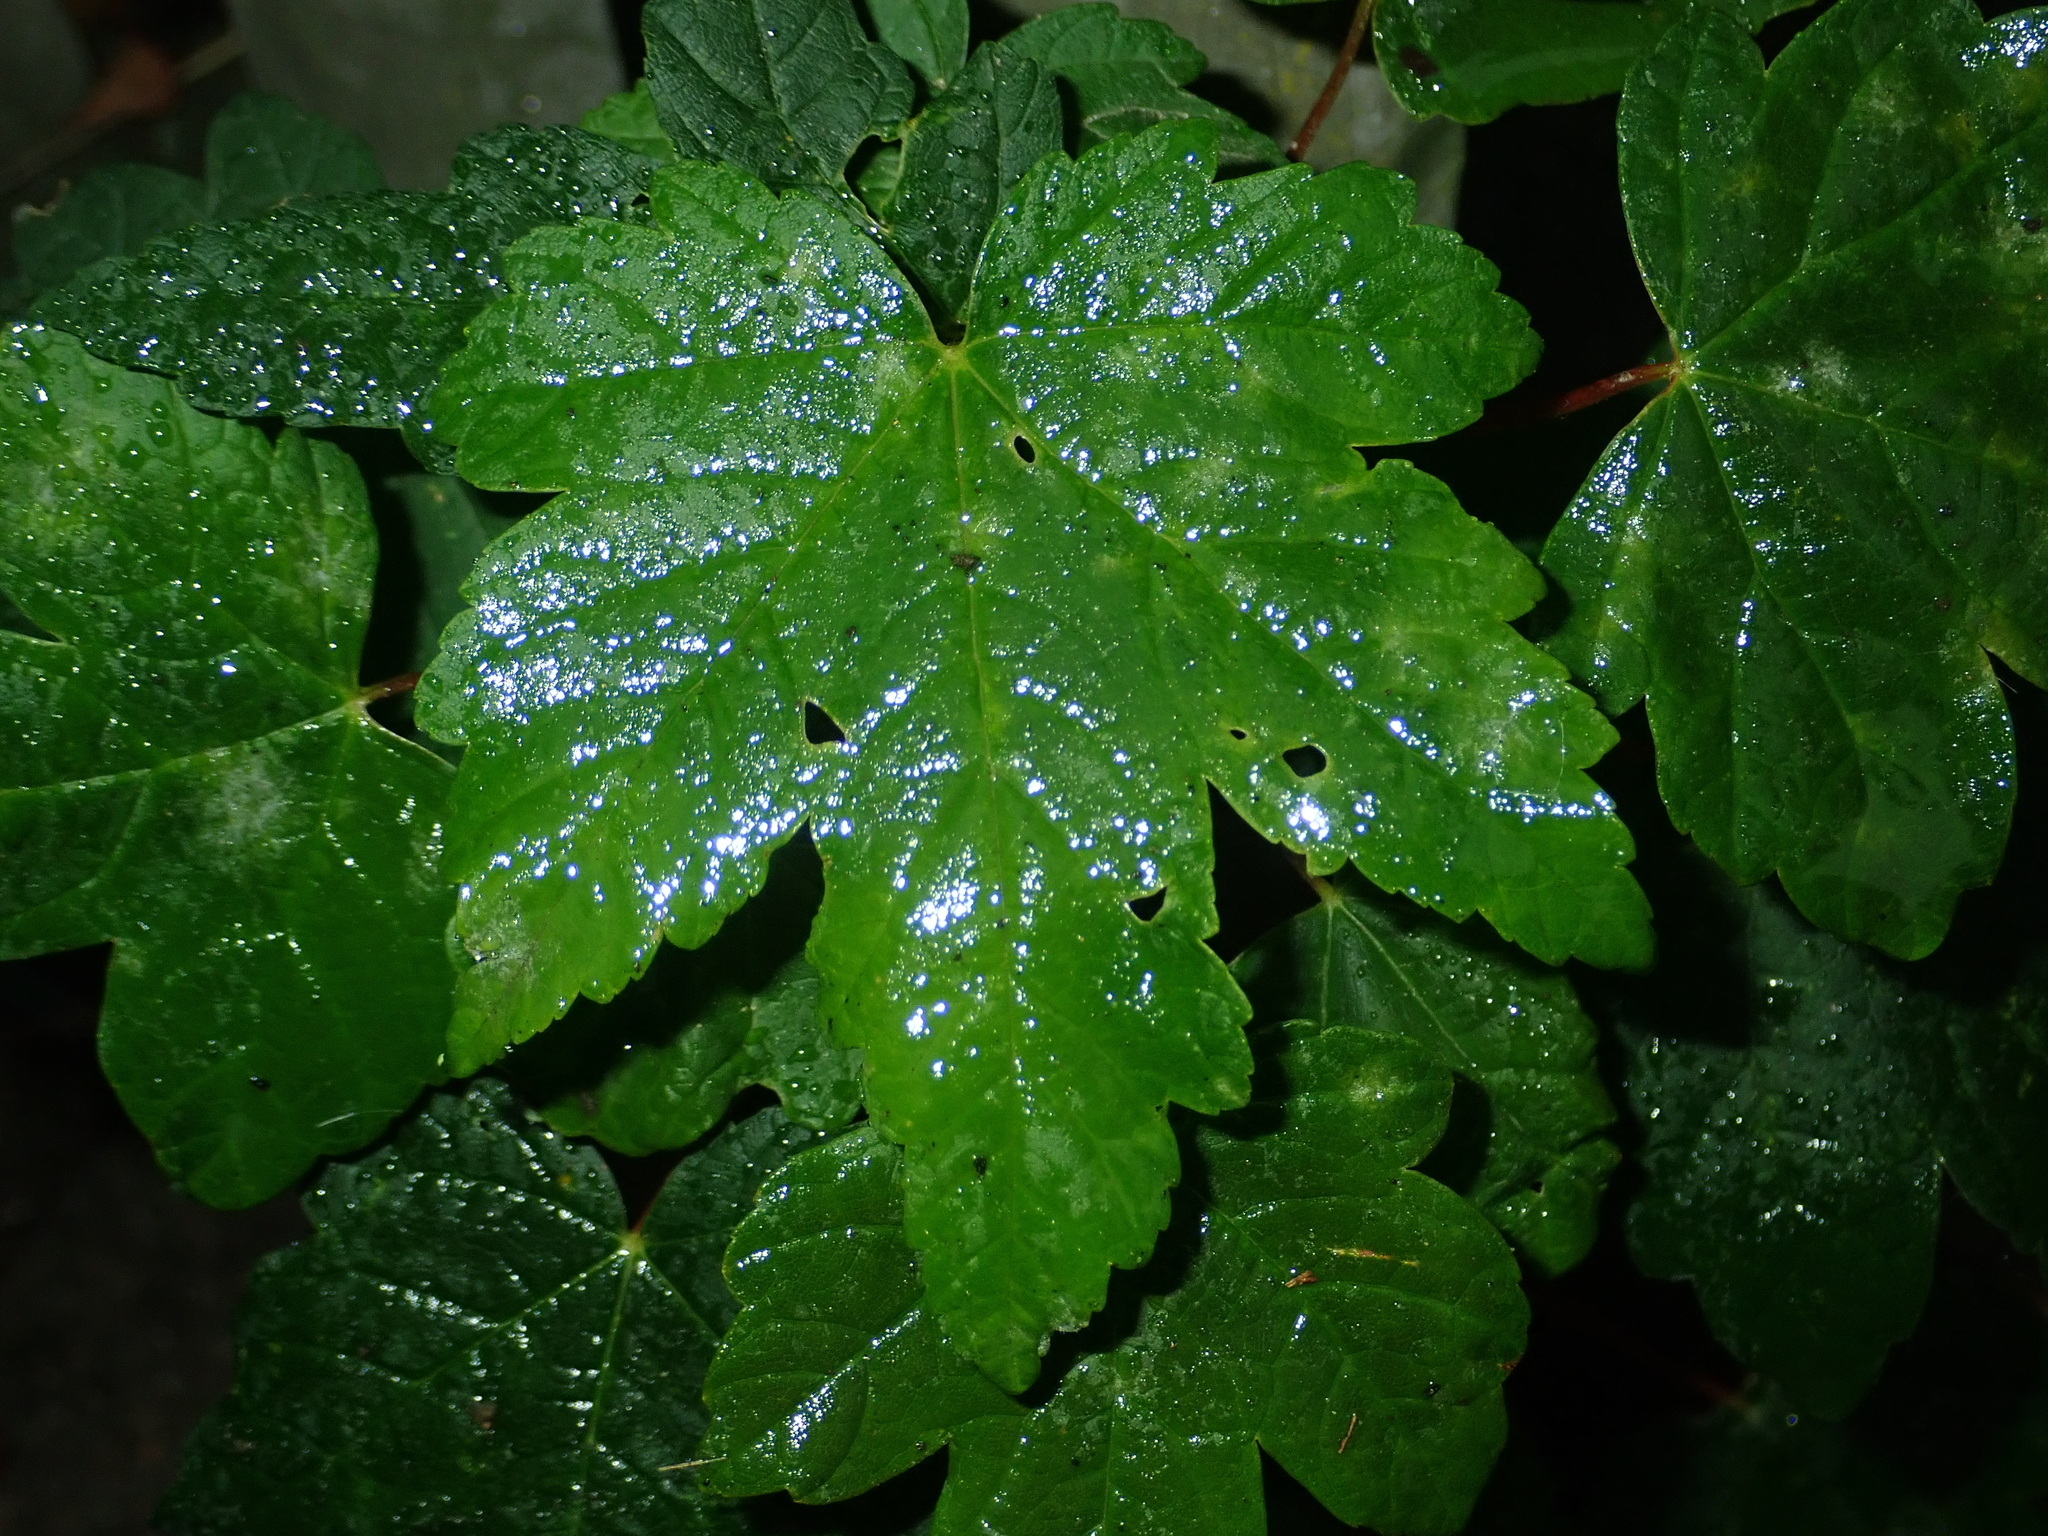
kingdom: Plantae
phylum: Tracheophyta
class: Magnoliopsida
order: Sapindales
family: Sapindaceae
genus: Acer
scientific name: Acer pseudoplatanus
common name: Sycamore
